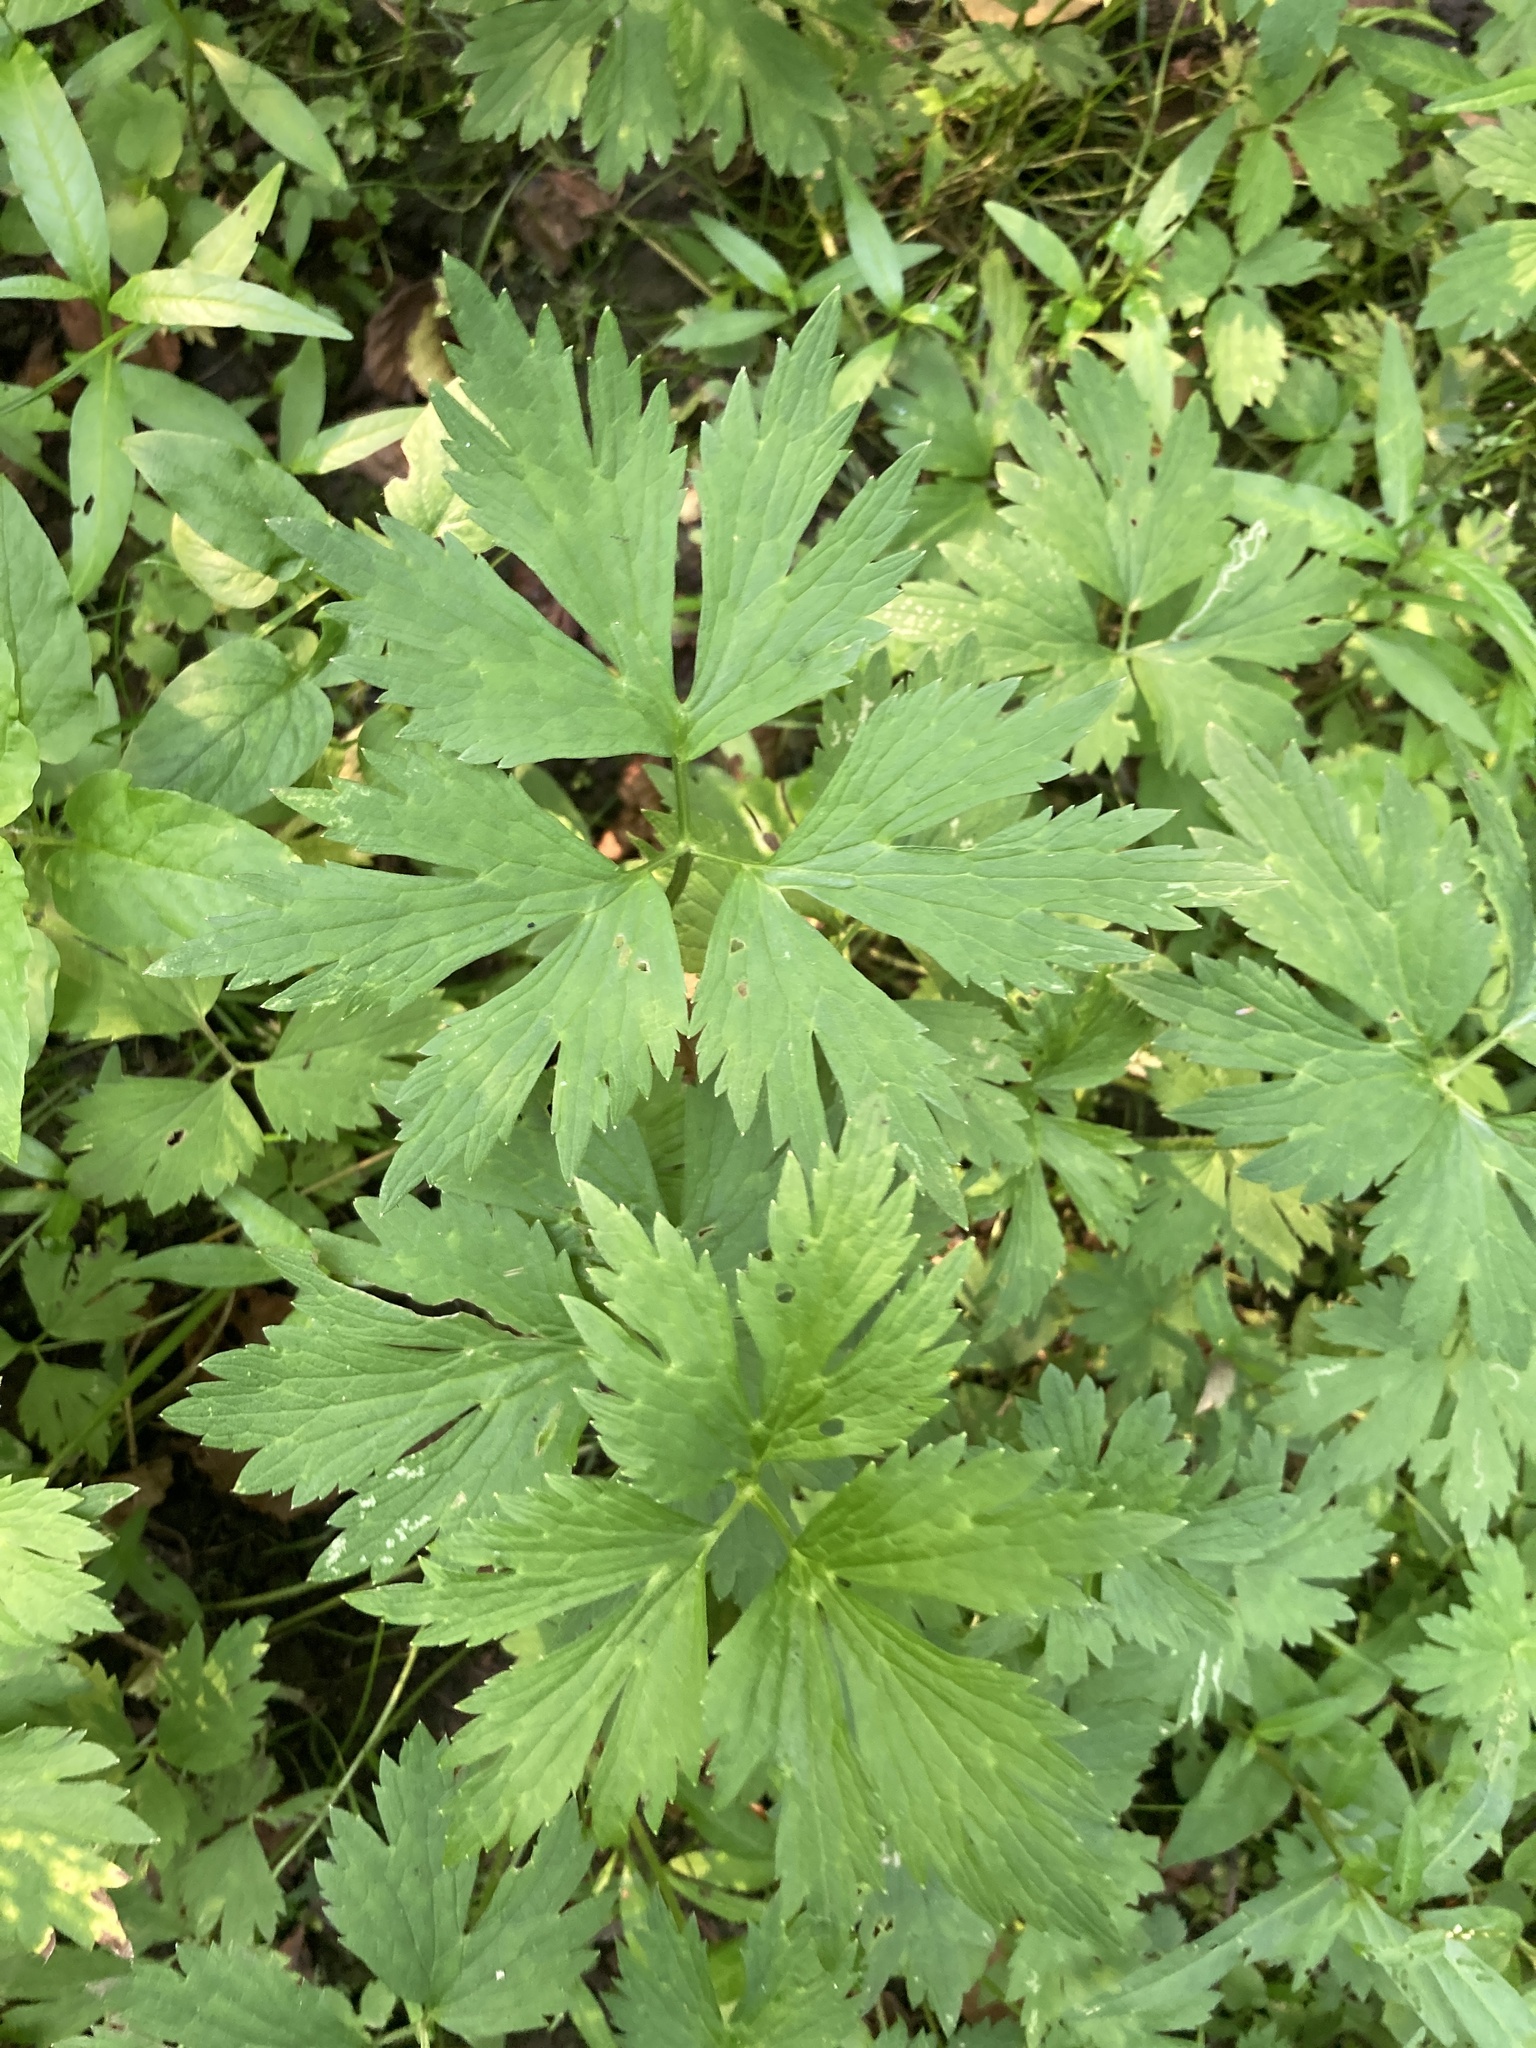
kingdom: Plantae
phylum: Tracheophyta
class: Magnoliopsida
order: Ranunculales
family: Ranunculaceae
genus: Ranunculus
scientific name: Ranunculus repens
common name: Creeping buttercup
